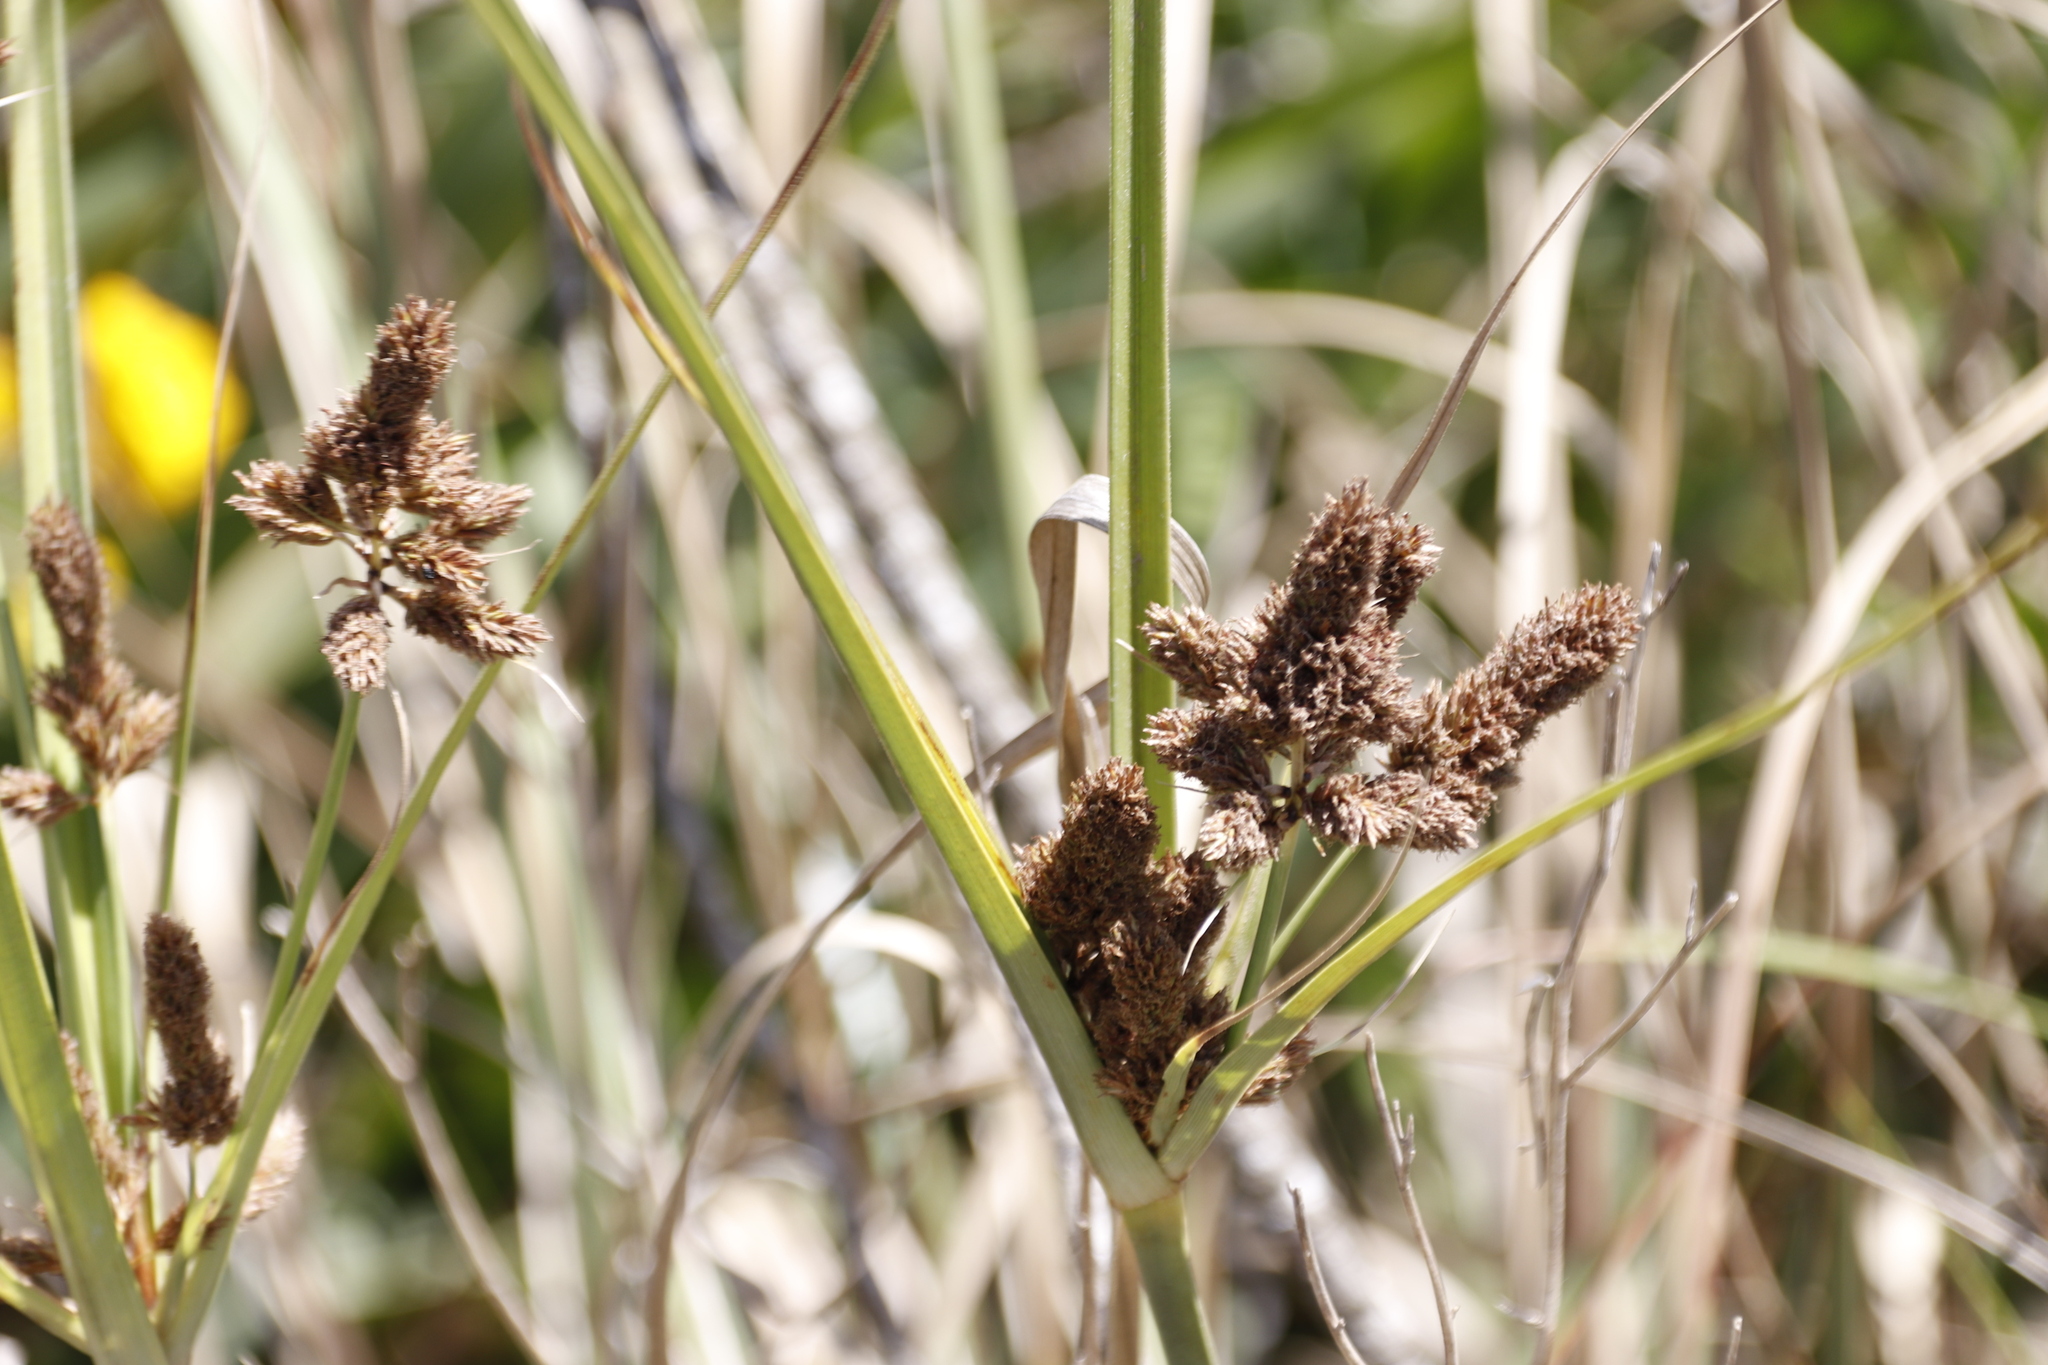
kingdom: Plantae
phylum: Tracheophyta
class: Liliopsida
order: Poales
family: Cyperaceae
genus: Cyperus
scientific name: Cyperus thunbergii
